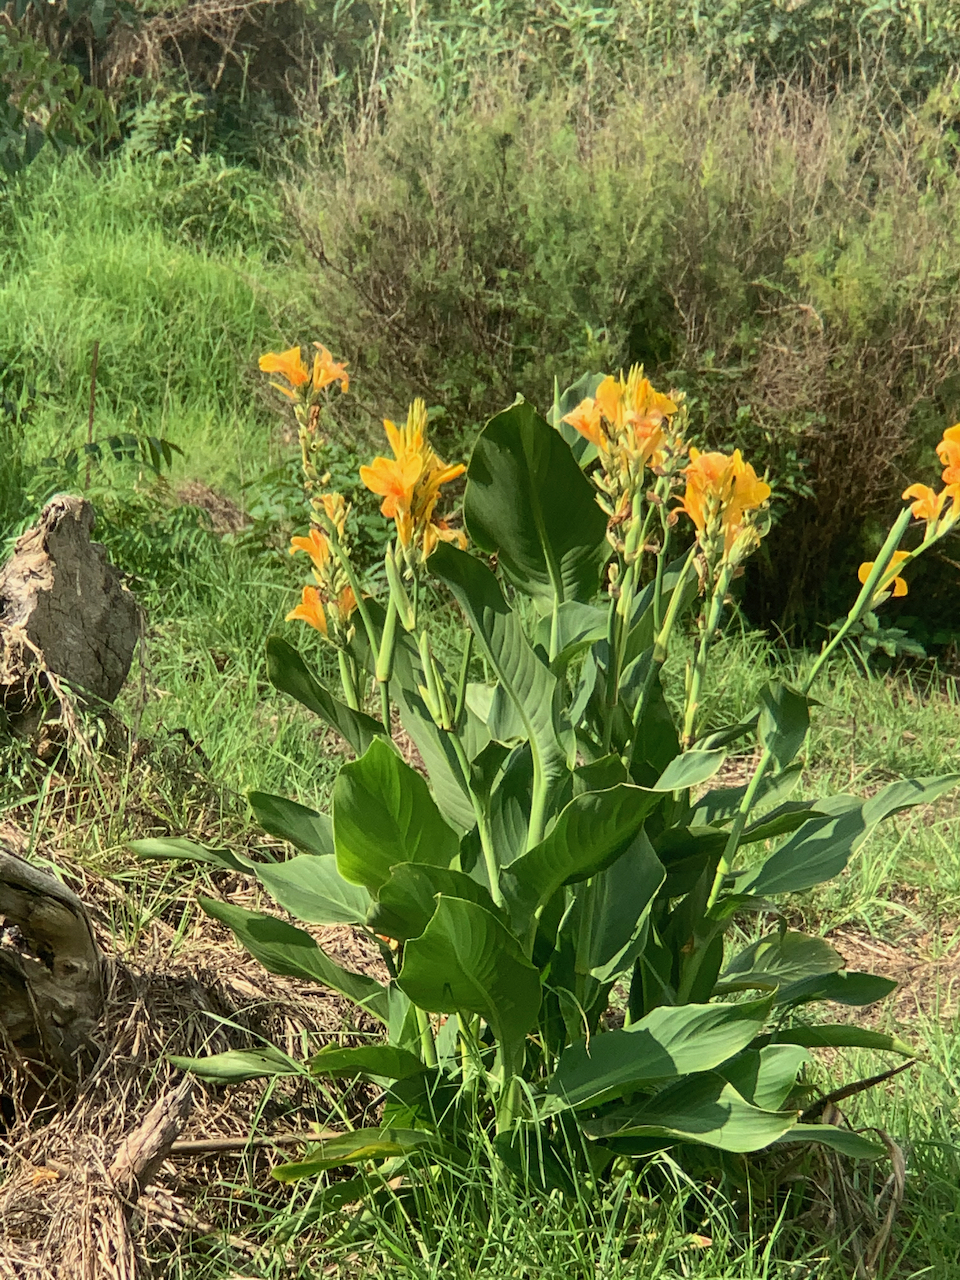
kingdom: Plantae
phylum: Tracheophyta
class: Liliopsida
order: Zingiberales
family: Cannaceae
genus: Canna
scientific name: Canna hybrida
